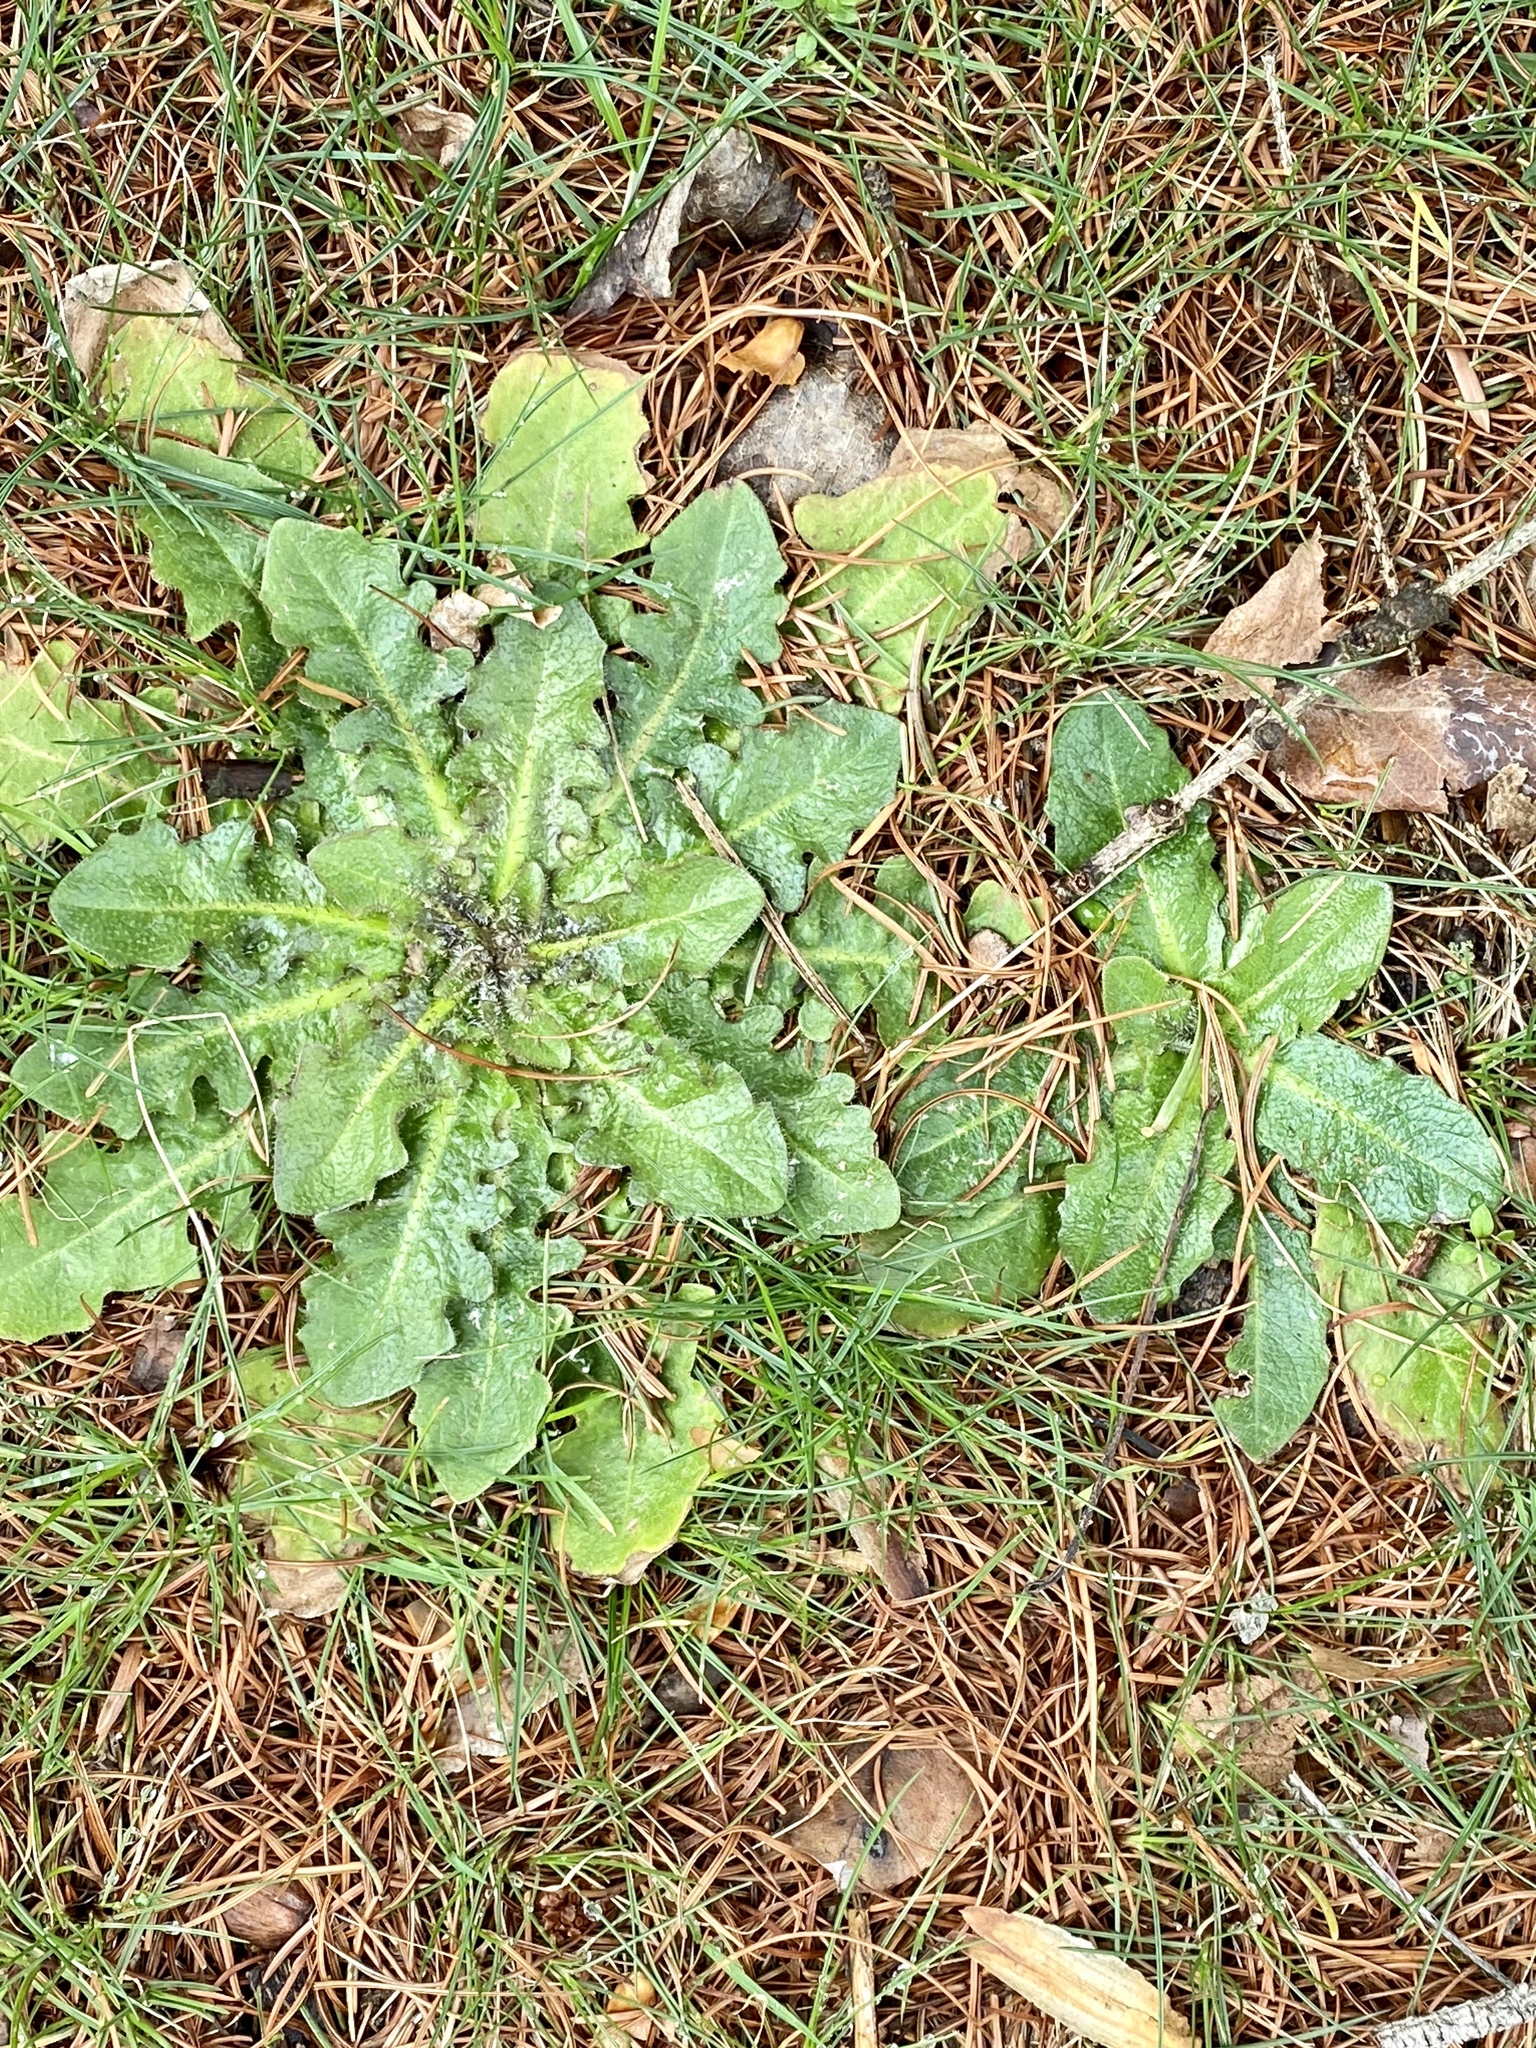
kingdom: Plantae
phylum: Tracheophyta
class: Magnoliopsida
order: Asterales
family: Asteraceae
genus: Hypochaeris
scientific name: Hypochaeris radicata
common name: Flatweed
